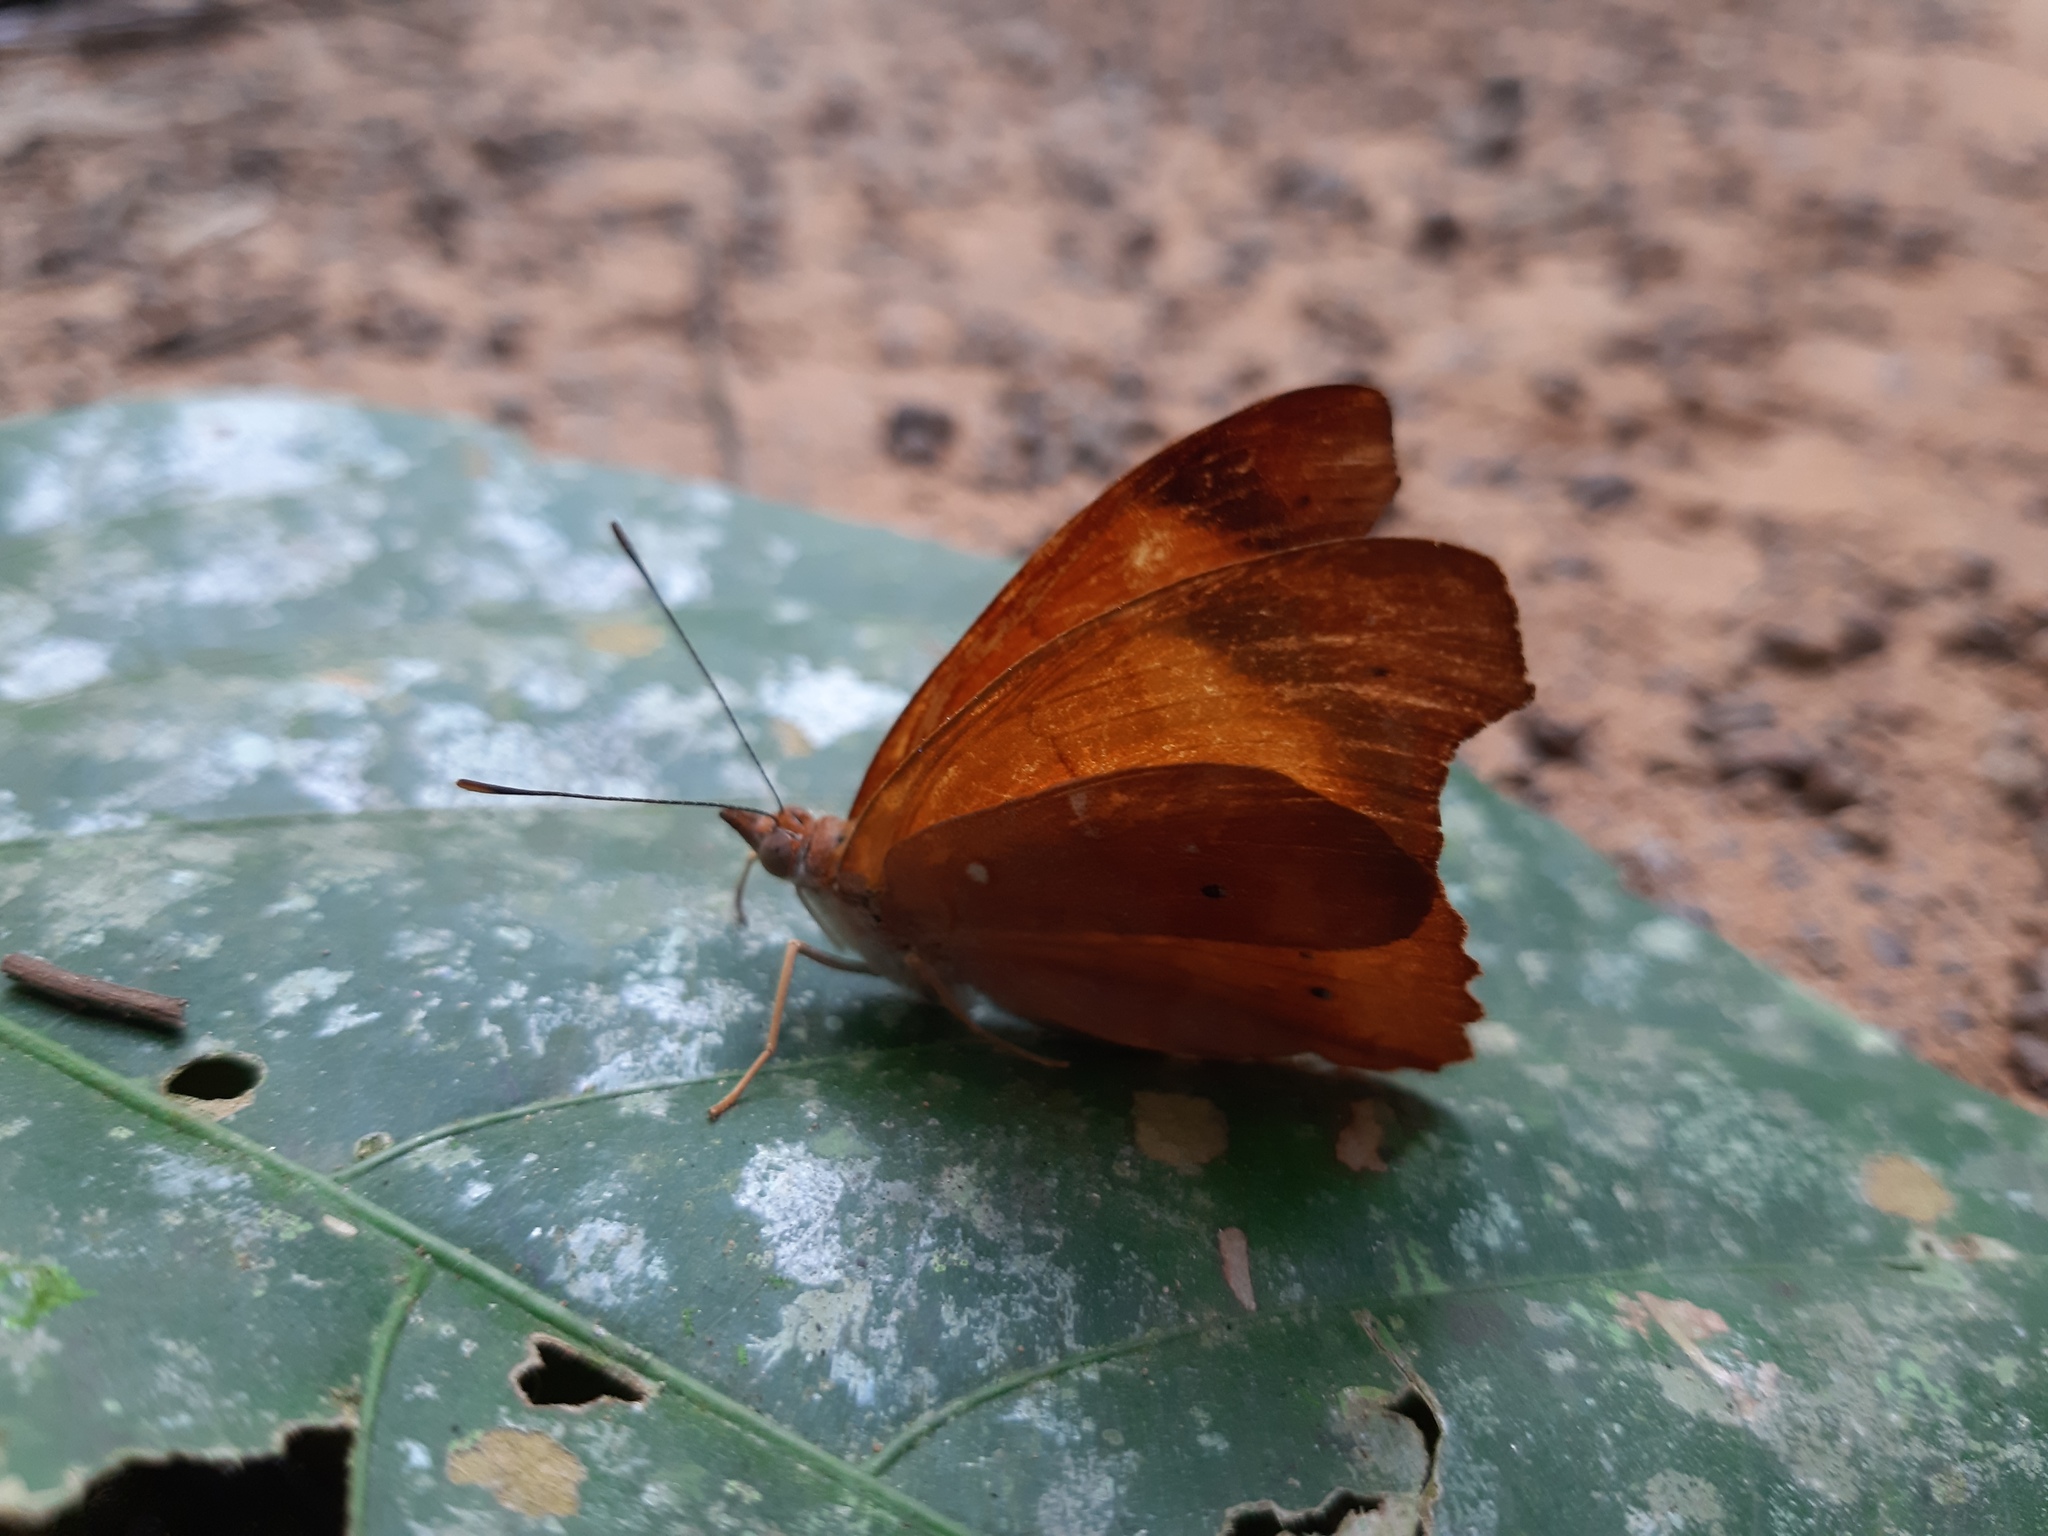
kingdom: Animalia
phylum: Arthropoda
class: Insecta
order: Lepidoptera
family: Nymphalidae
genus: Temenis
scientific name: Temenis laothoe
